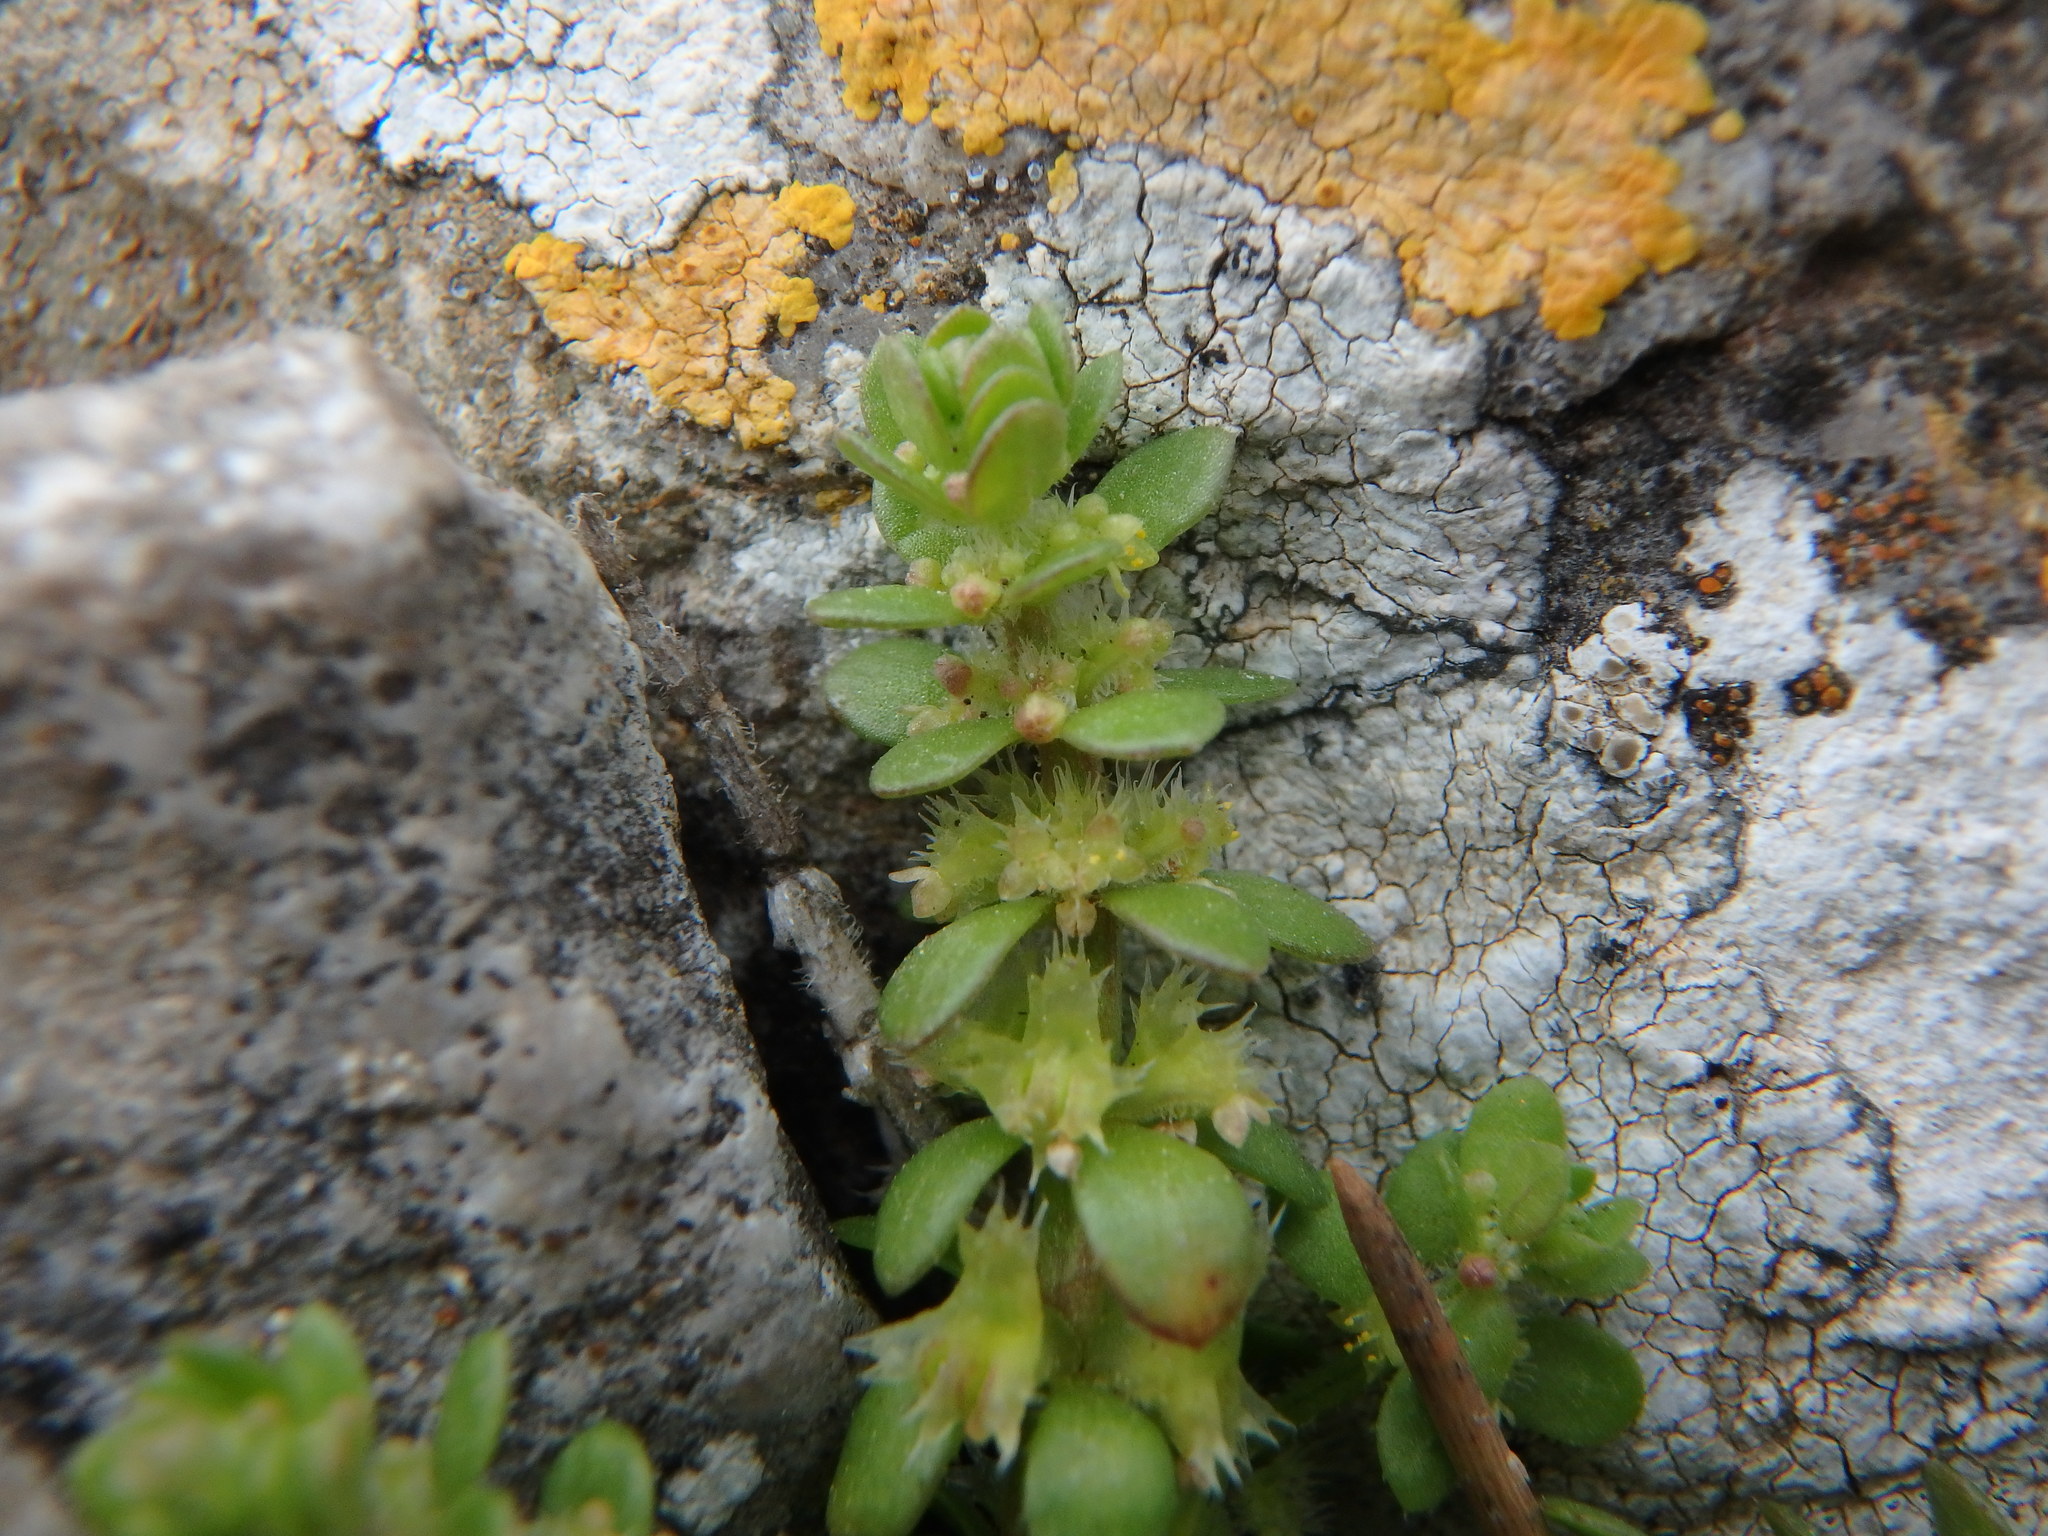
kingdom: Plantae
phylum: Tracheophyta
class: Magnoliopsida
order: Gentianales
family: Rubiaceae
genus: Valantia
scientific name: Valantia muralis
